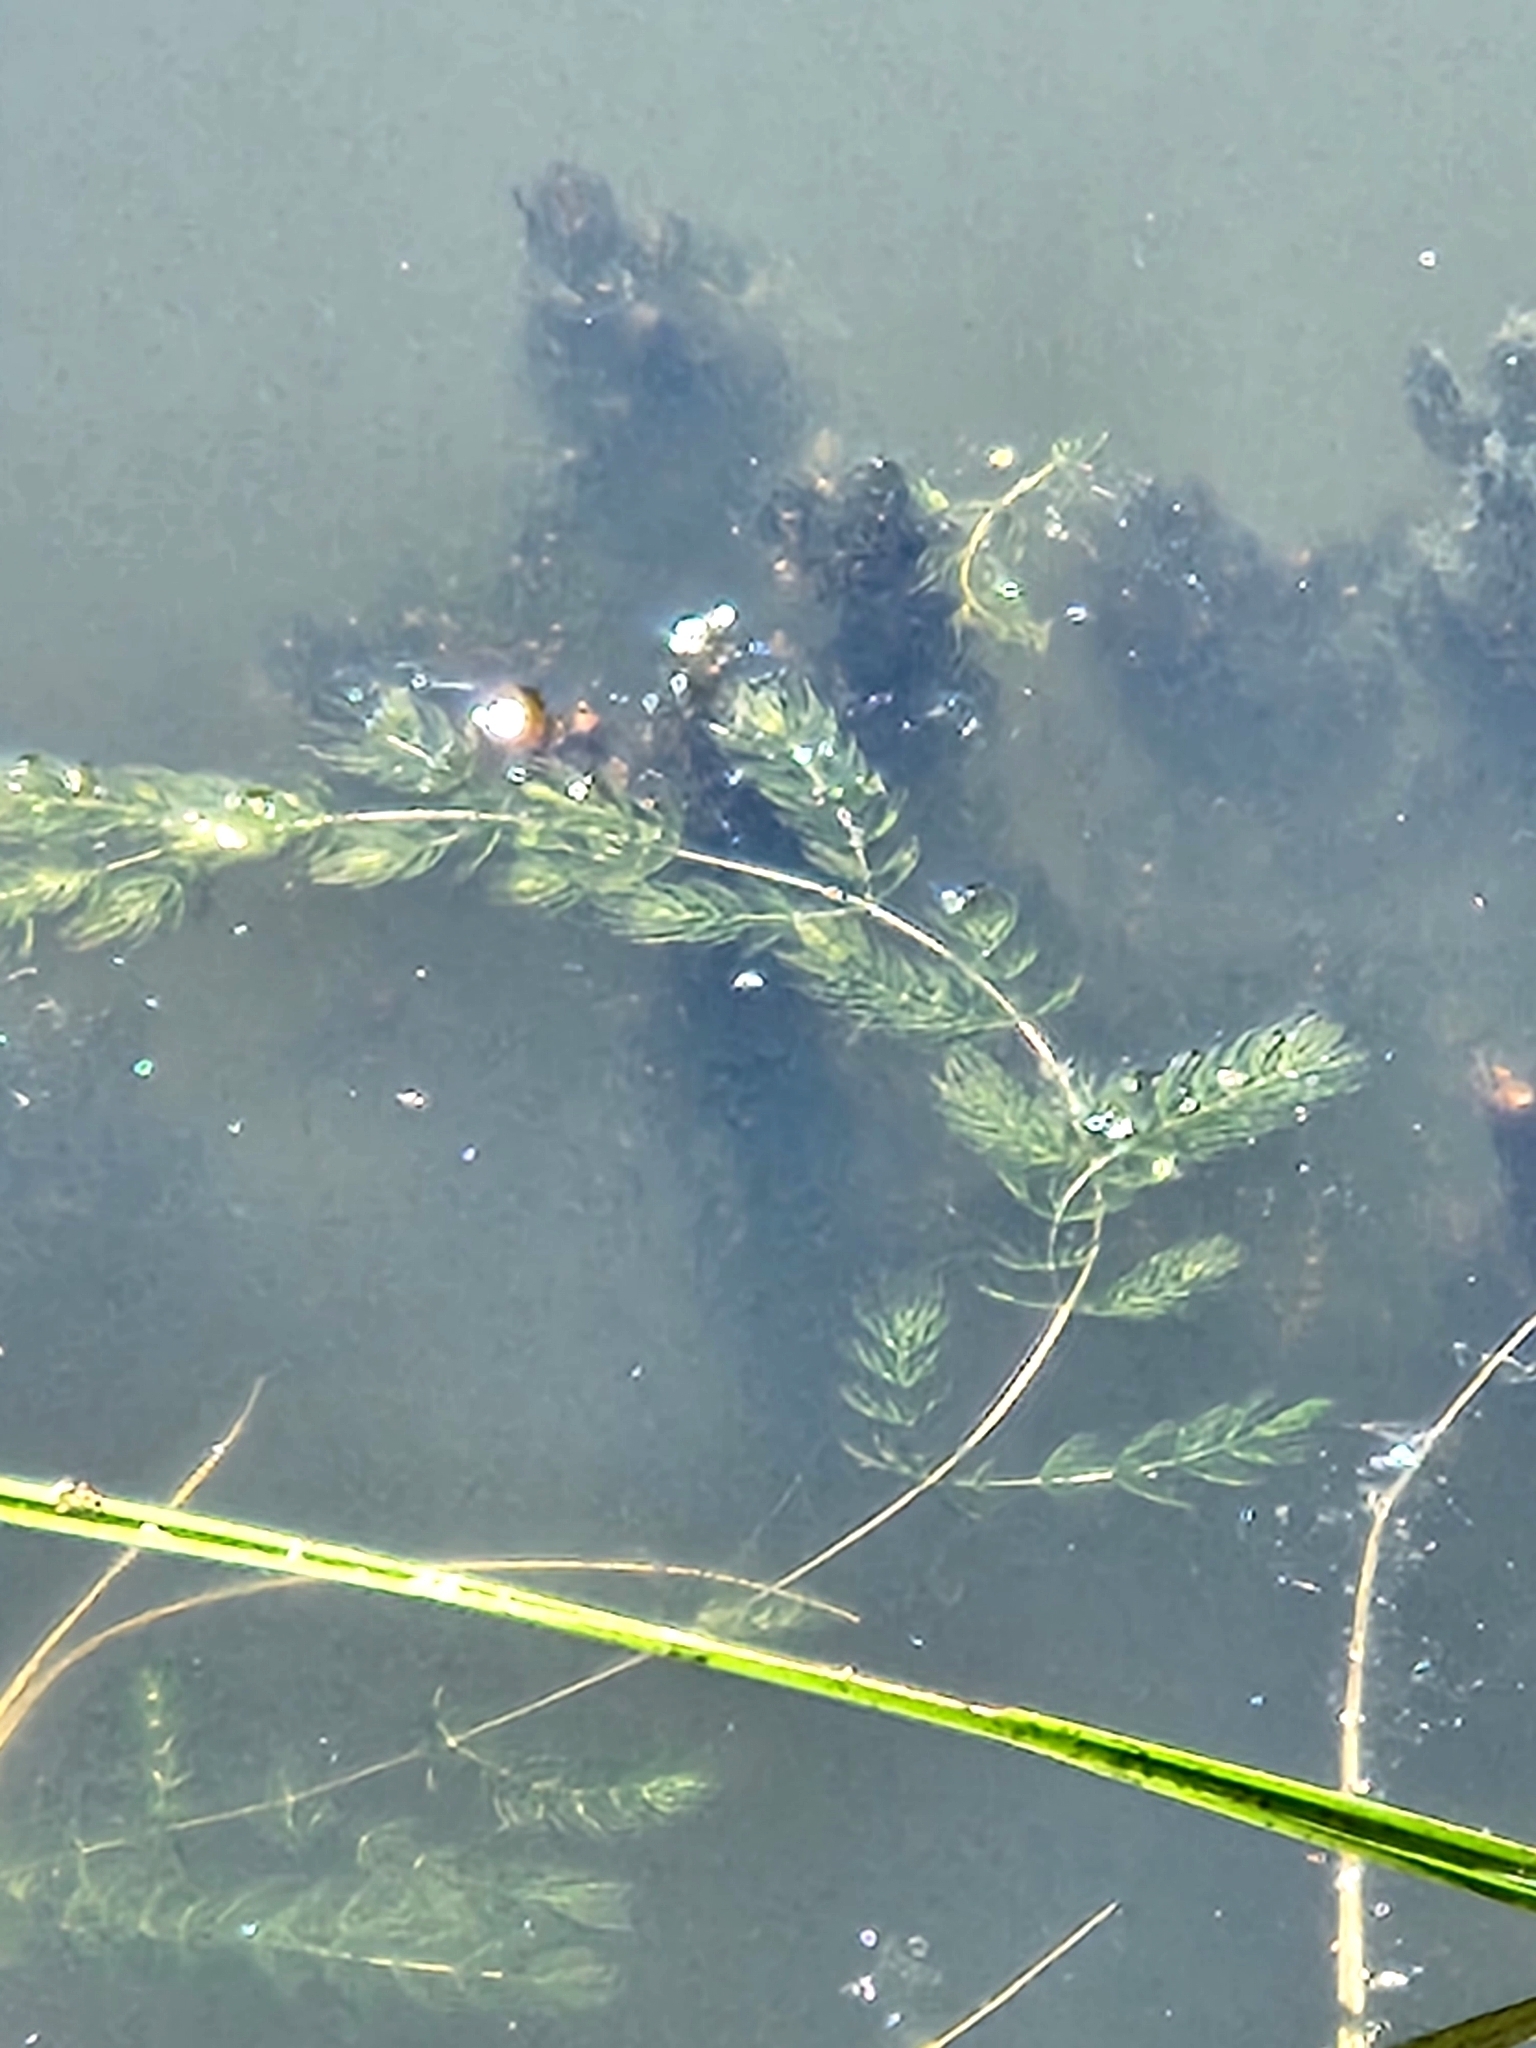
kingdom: Plantae
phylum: Tracheophyta
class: Magnoliopsida
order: Ceratophyllales
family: Ceratophyllaceae
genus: Ceratophyllum
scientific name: Ceratophyllum demersum
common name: Rigid hornwort
